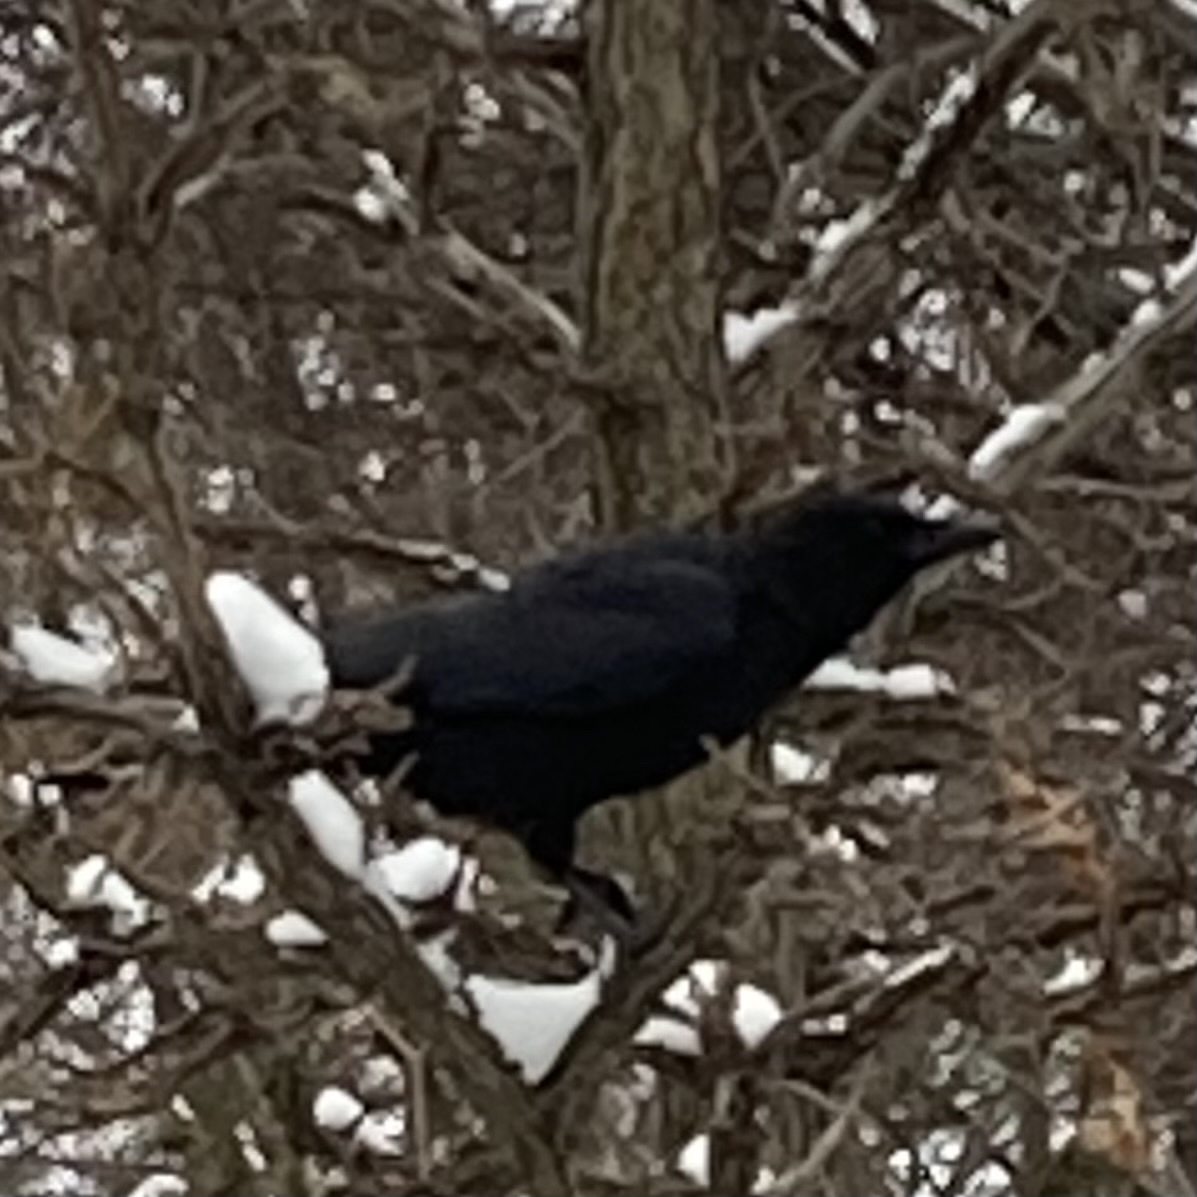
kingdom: Animalia
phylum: Chordata
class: Aves
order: Passeriformes
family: Corvidae
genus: Corvus
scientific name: Corvus brachyrhynchos
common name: American crow
